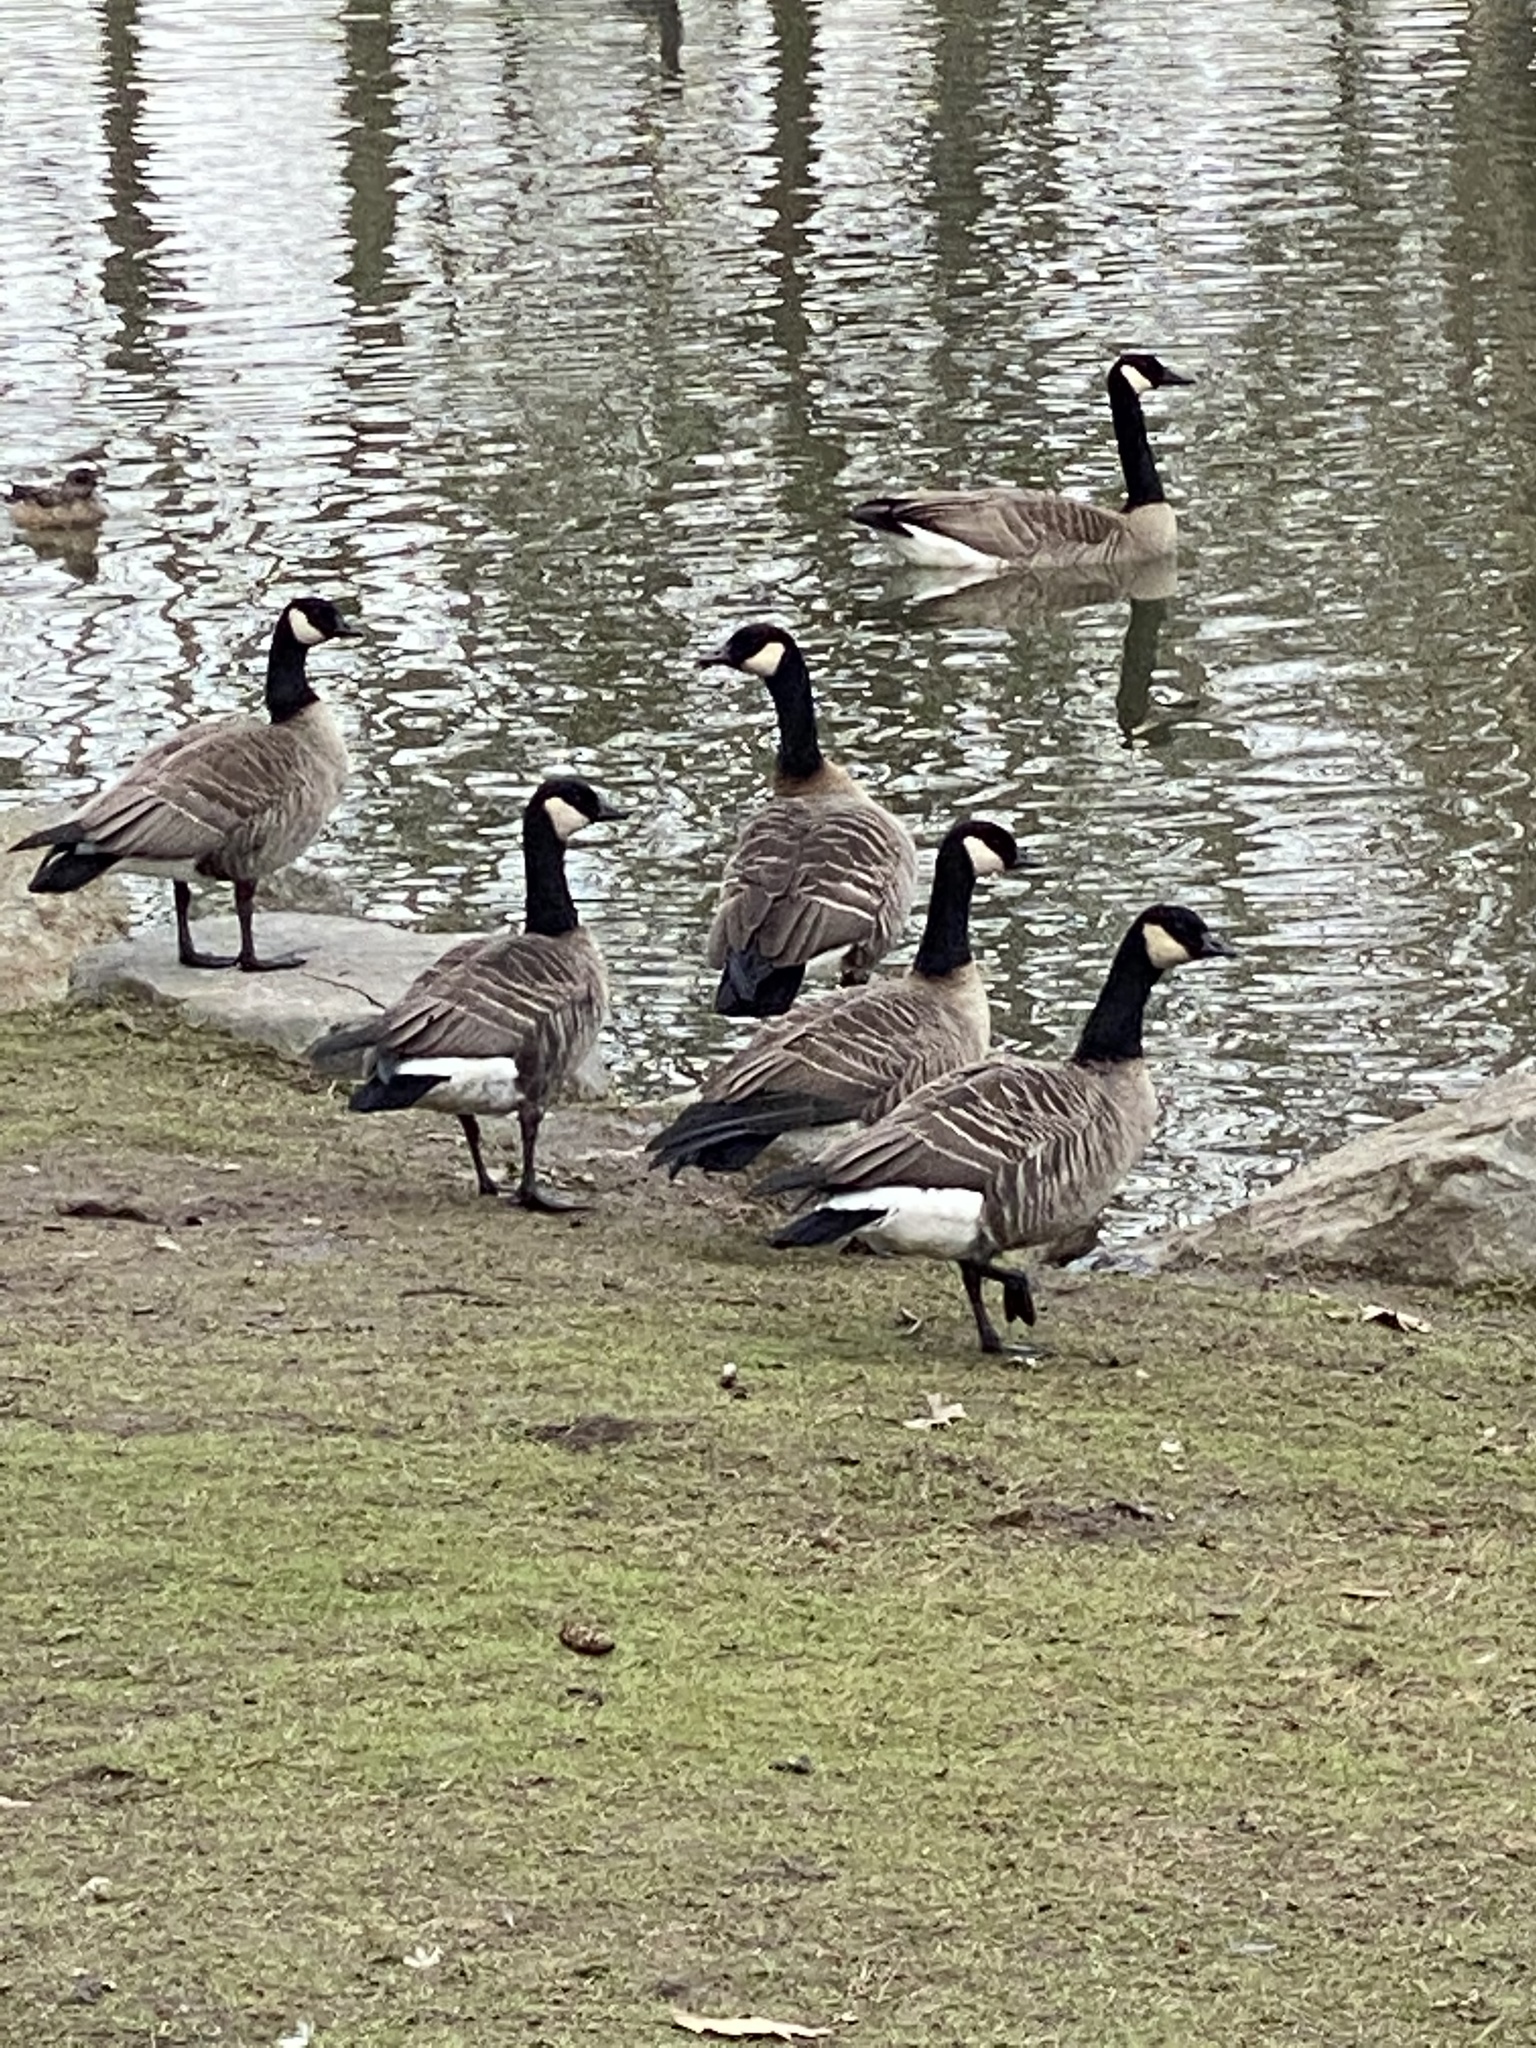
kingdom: Animalia
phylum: Chordata
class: Aves
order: Anseriformes
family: Anatidae
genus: Branta
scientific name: Branta hutchinsii
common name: Cackling goose
